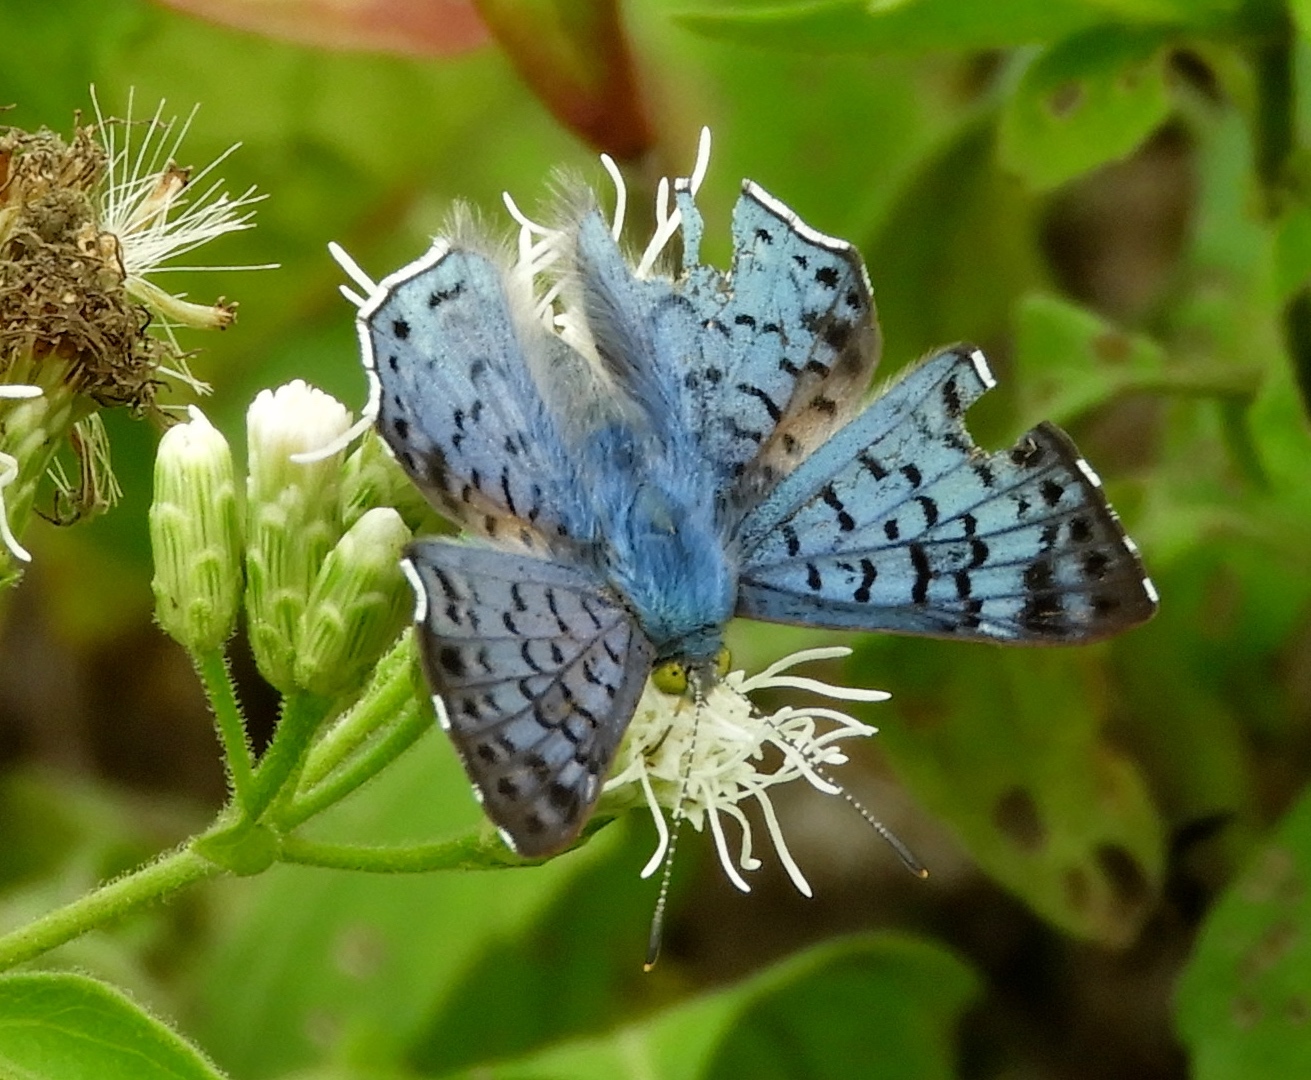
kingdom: Animalia
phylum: Arthropoda
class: Insecta
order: Lepidoptera
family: Riodinidae
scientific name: Riodinidae
